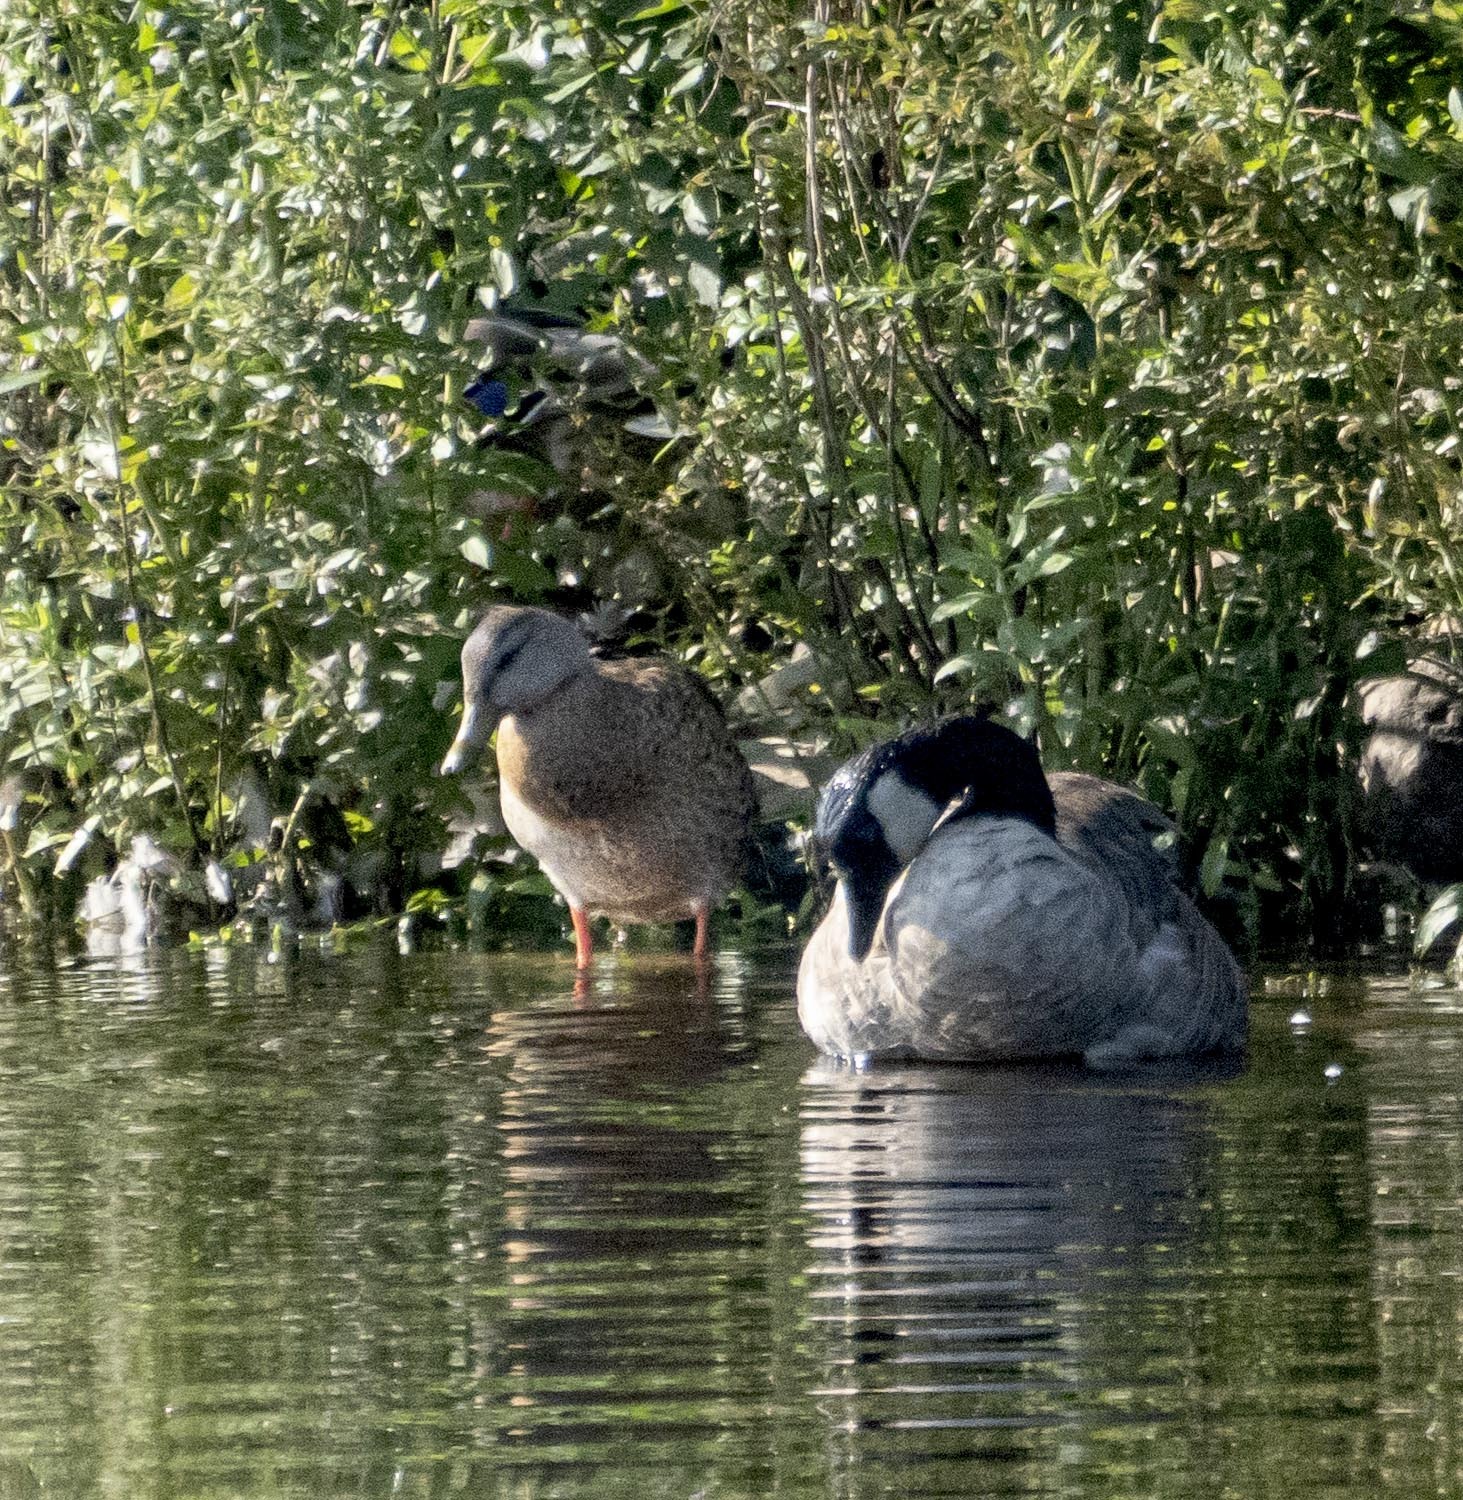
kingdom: Animalia
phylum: Chordata
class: Aves
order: Anseriformes
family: Anatidae
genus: Anas
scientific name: Anas platyrhynchos
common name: Mallard
